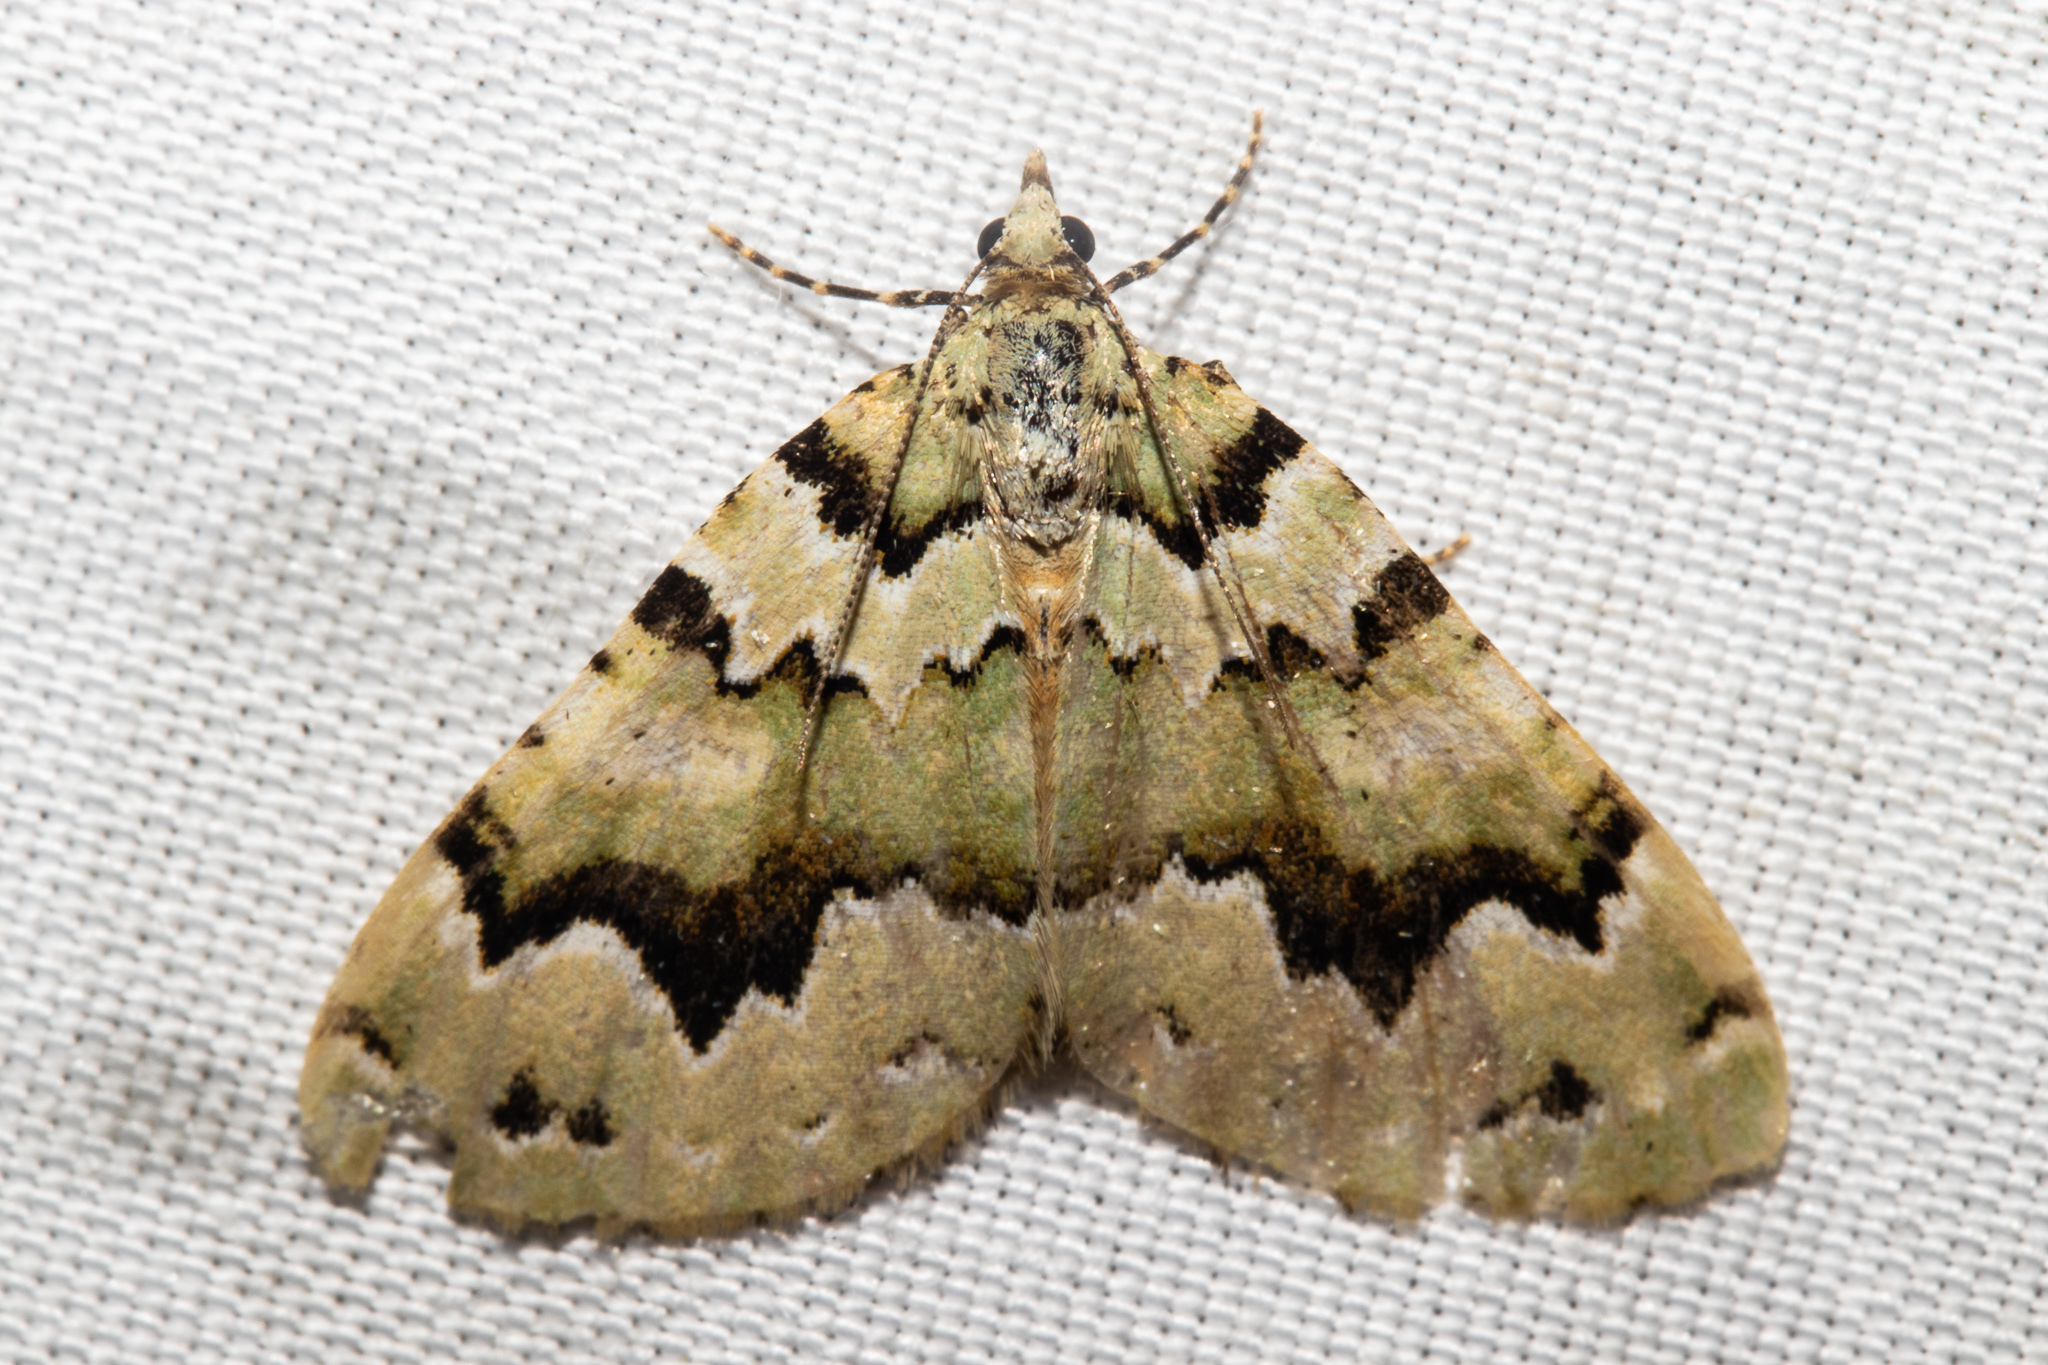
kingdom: Animalia
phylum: Arthropoda
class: Insecta
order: Lepidoptera
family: Geometridae
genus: Asaphodes
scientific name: Asaphodes adonis
